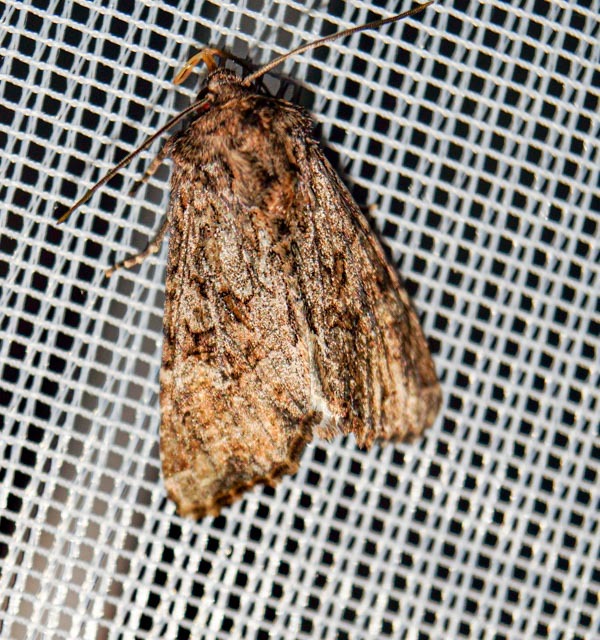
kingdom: Animalia
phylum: Arthropoda
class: Insecta
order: Lepidoptera
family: Noctuidae
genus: Apamea
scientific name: Apamea anceps
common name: Large nutmeg
